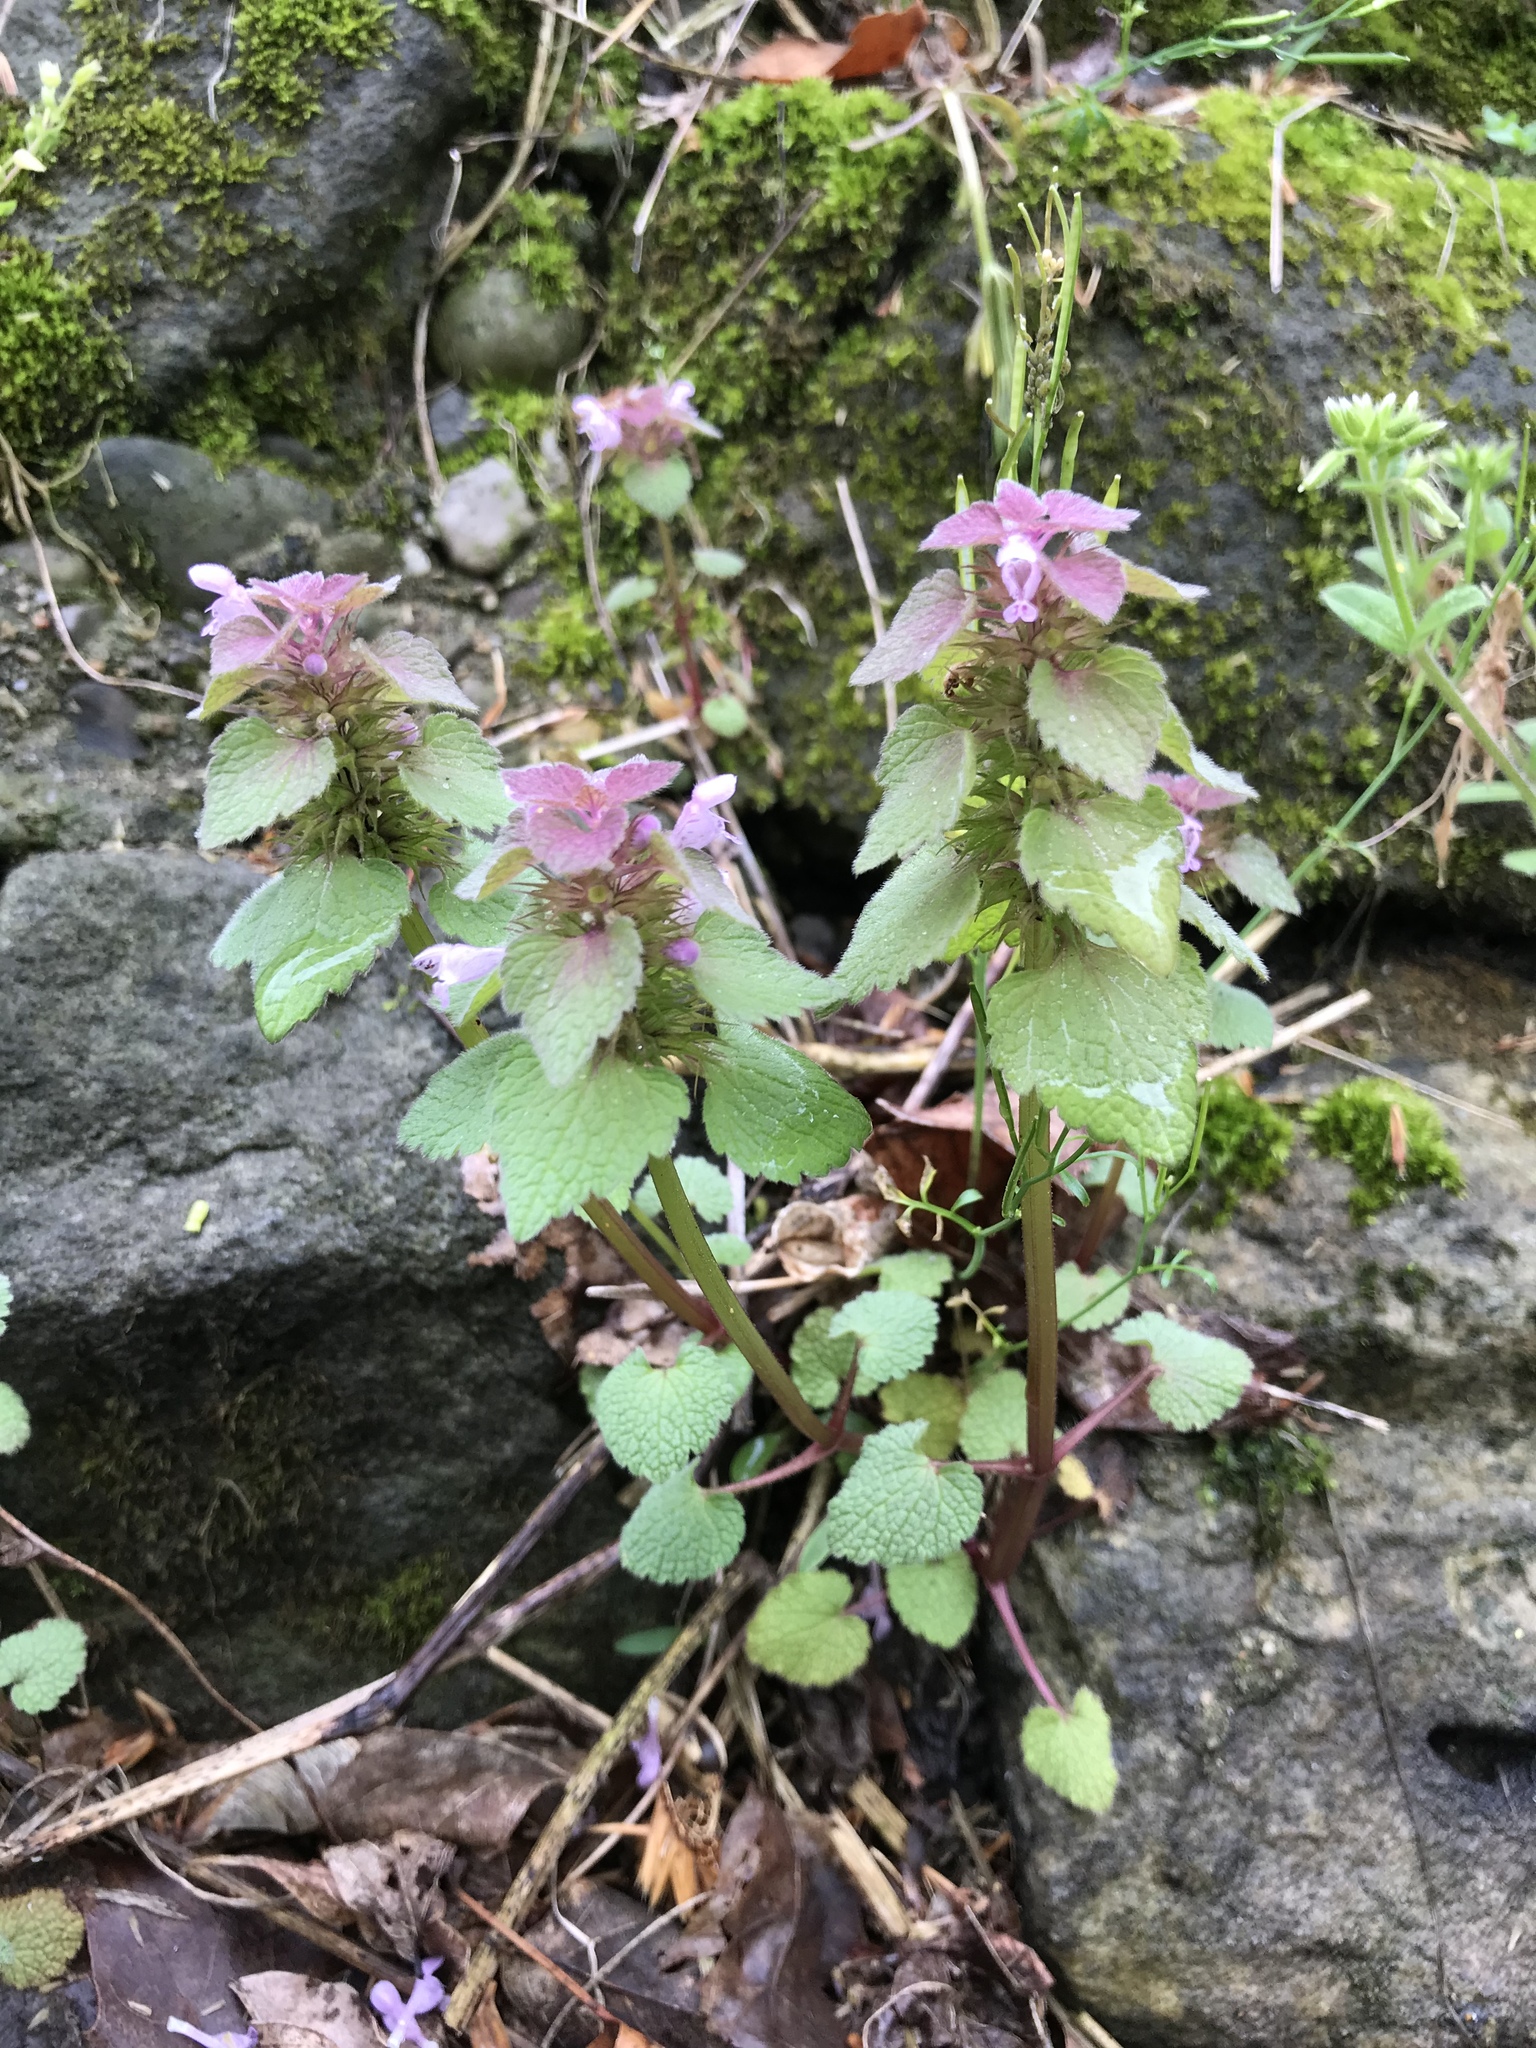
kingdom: Plantae
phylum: Tracheophyta
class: Magnoliopsida
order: Lamiales
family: Lamiaceae
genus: Lamium
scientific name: Lamium purpureum
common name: Red dead-nettle
